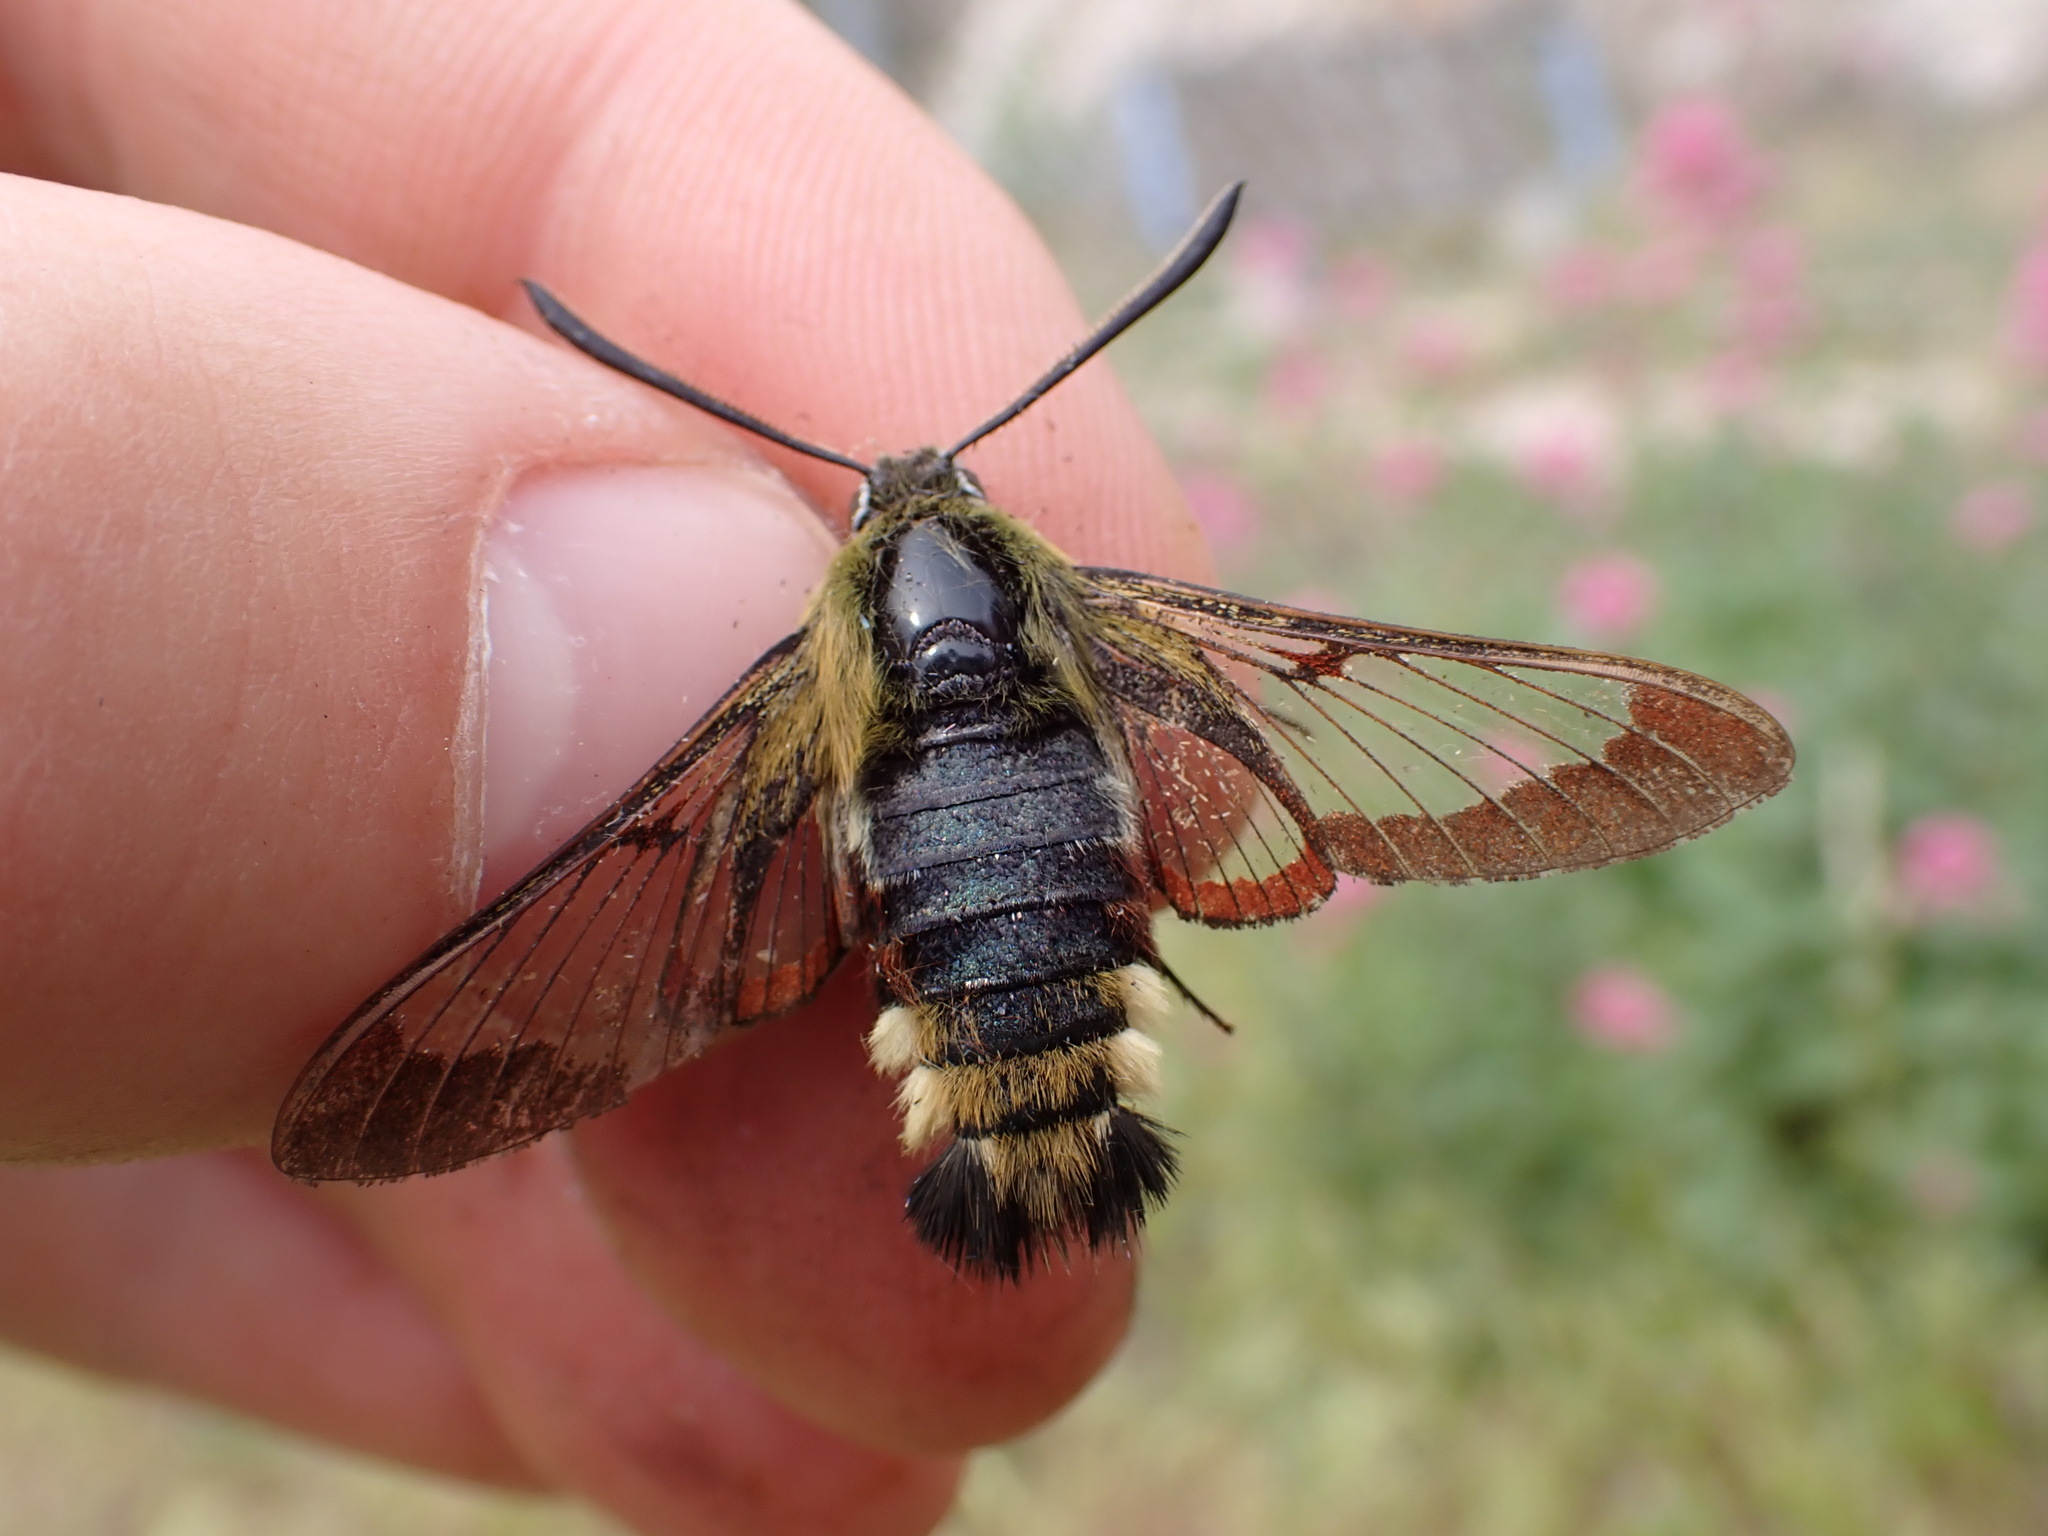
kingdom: Animalia
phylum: Arthropoda
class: Insecta
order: Lepidoptera
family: Sphingidae
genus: Hemaris
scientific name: Hemaris fuciformis
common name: Broad-bordered bee hawk-moth
